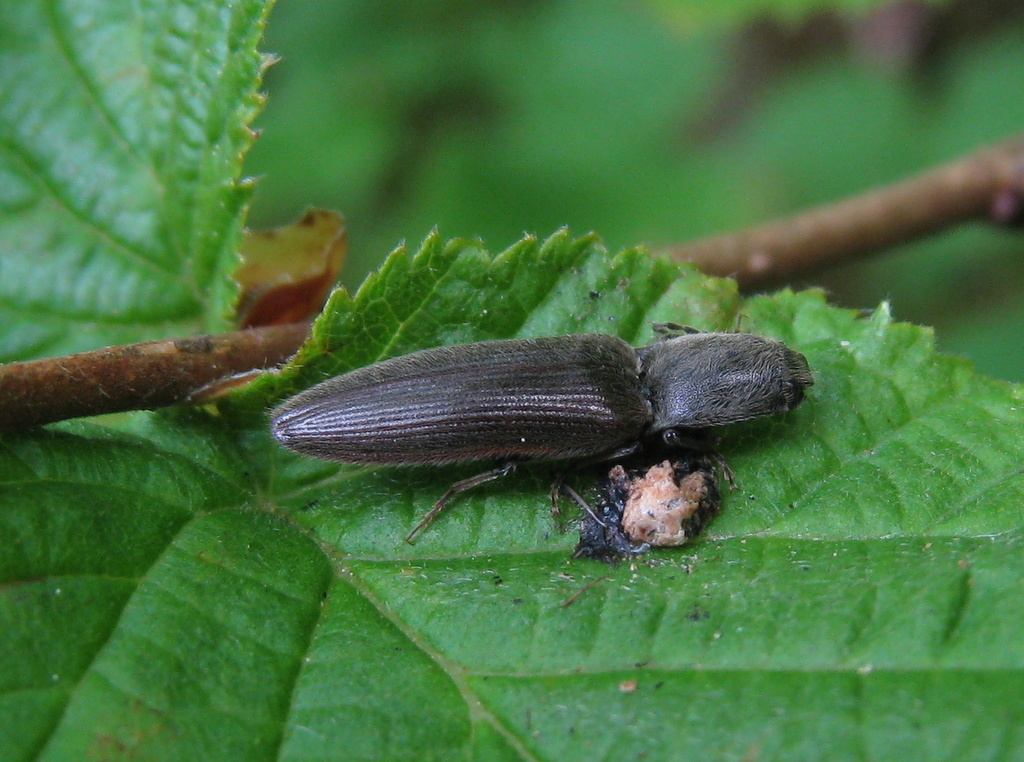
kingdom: Animalia
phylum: Arthropoda
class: Insecta
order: Coleoptera
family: Elateridae
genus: Athous
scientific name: Athous haemorrhoidalis
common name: Red-brown click beetle
